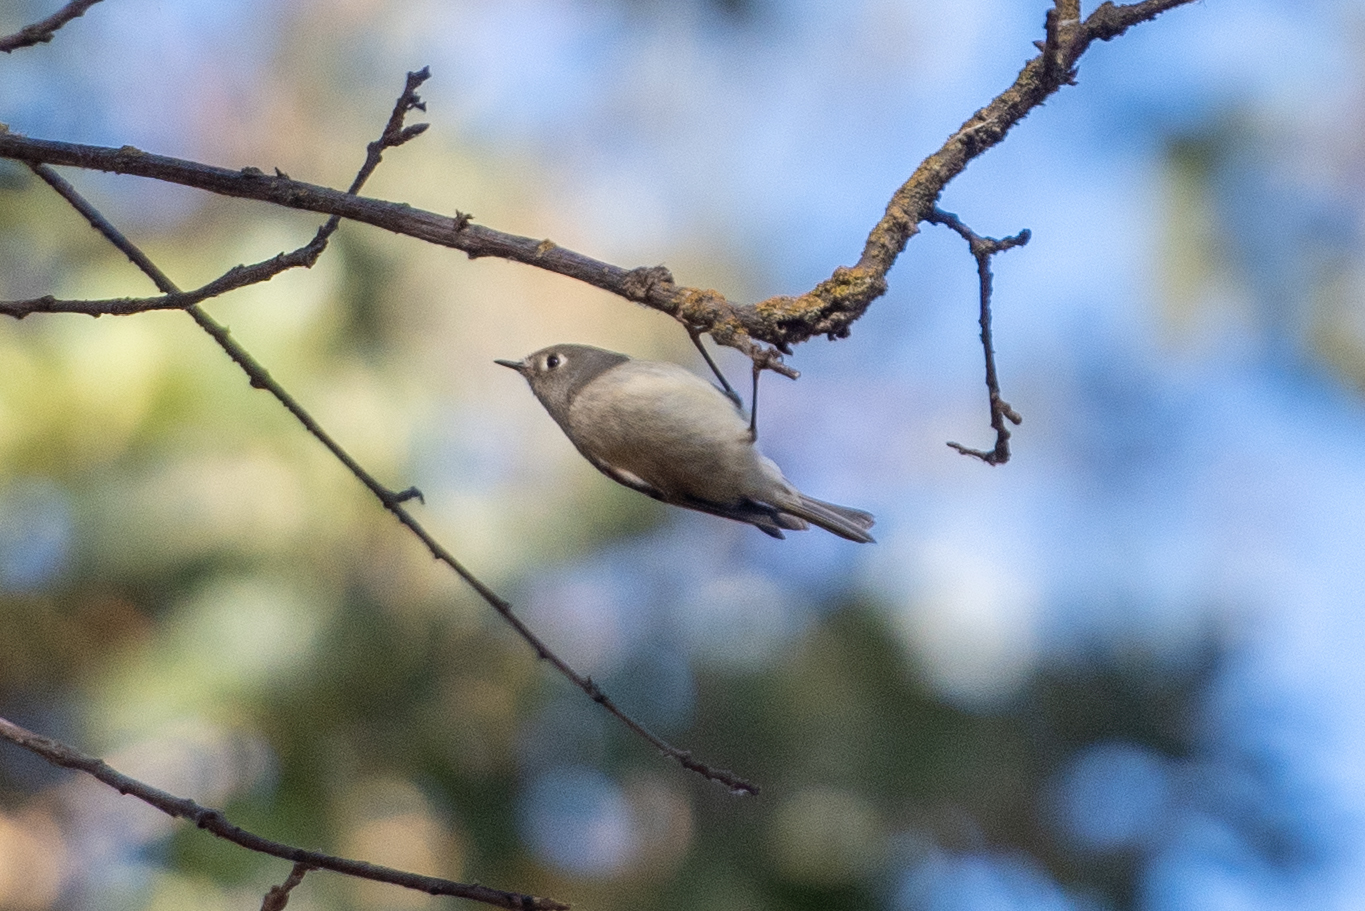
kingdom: Animalia
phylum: Chordata
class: Aves
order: Passeriformes
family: Regulidae
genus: Regulus
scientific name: Regulus calendula
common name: Ruby-crowned kinglet
